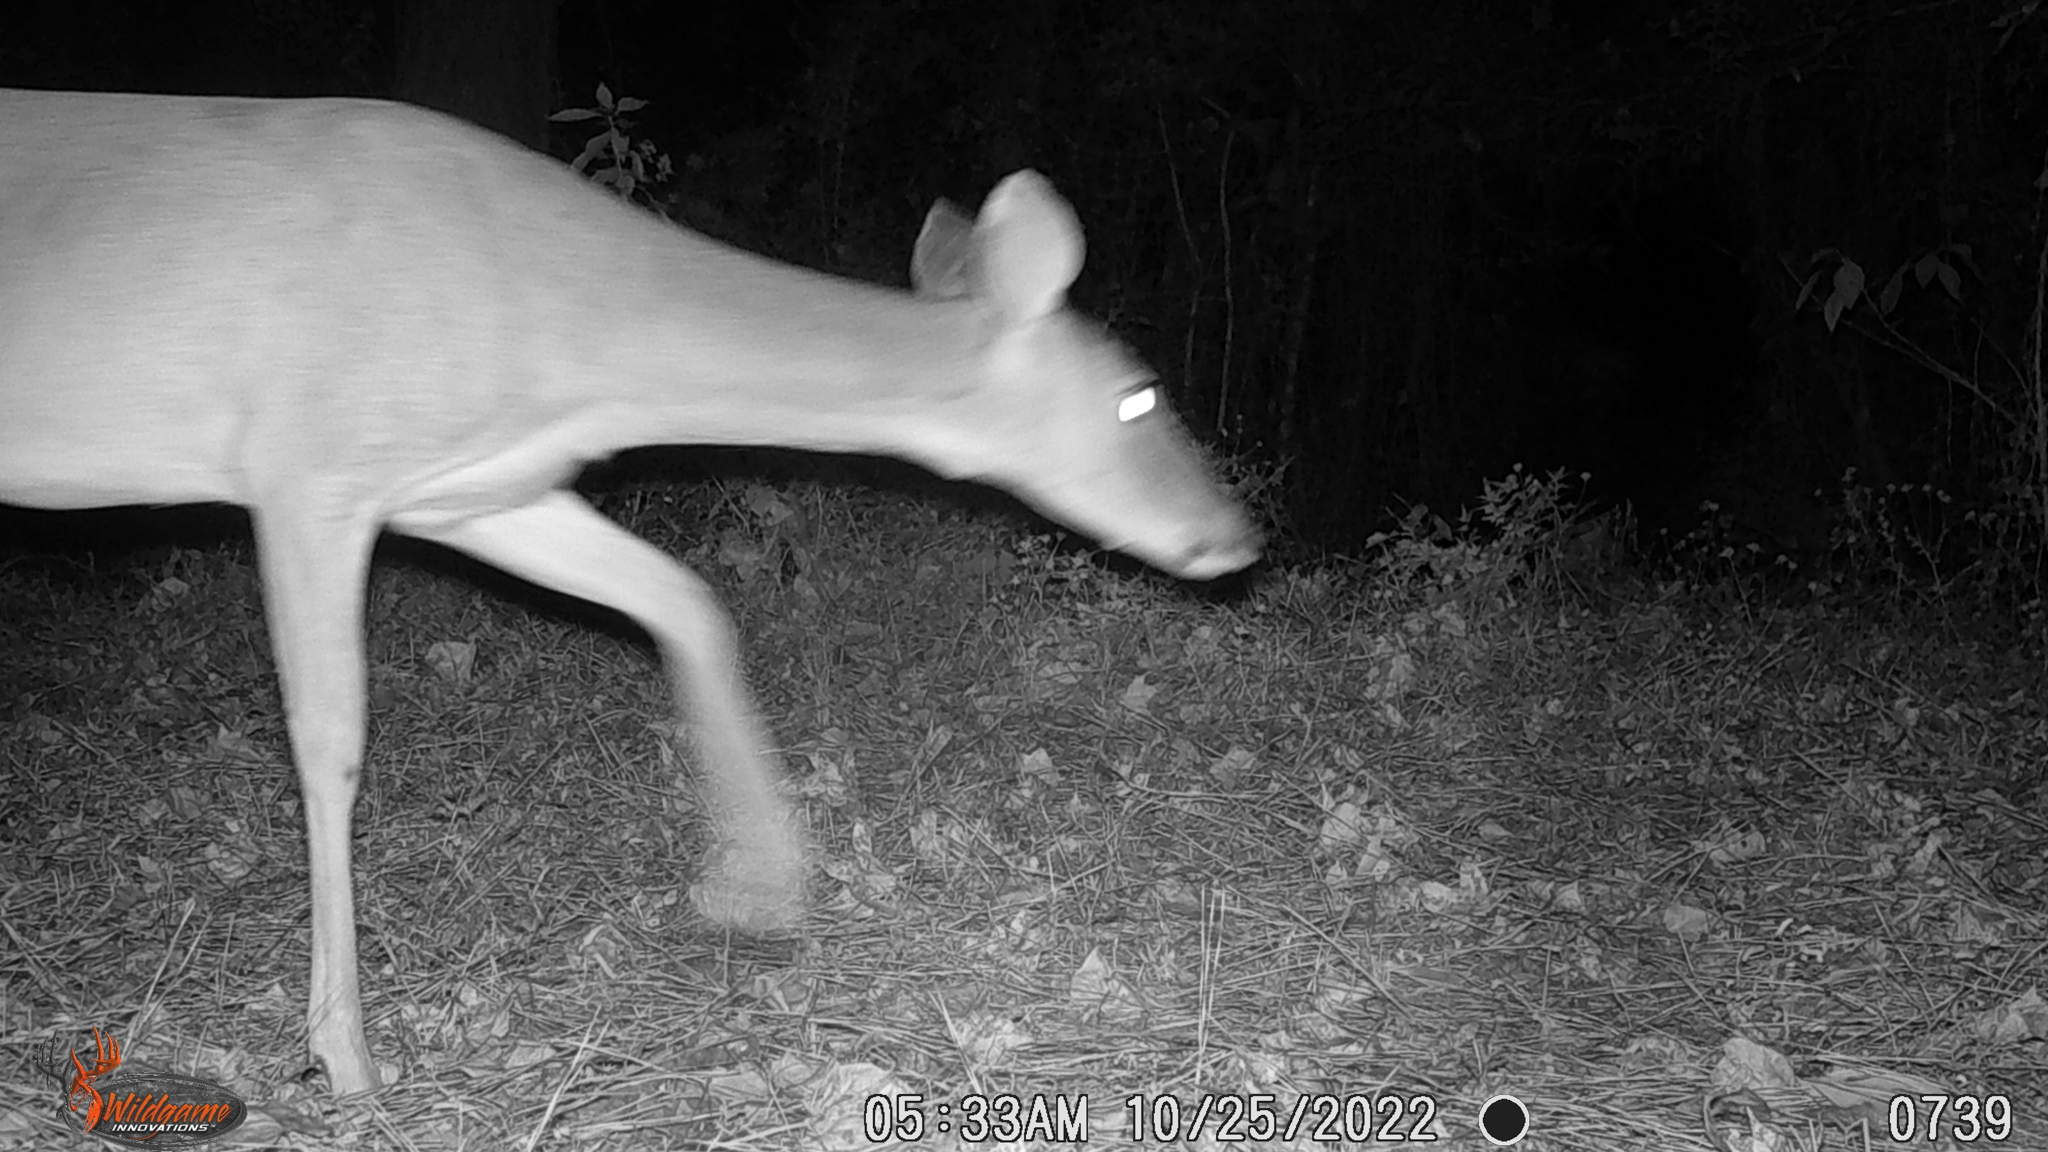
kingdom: Animalia
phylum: Chordata
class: Mammalia
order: Artiodactyla
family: Cervidae
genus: Odocoileus
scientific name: Odocoileus virginianus
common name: White-tailed deer
